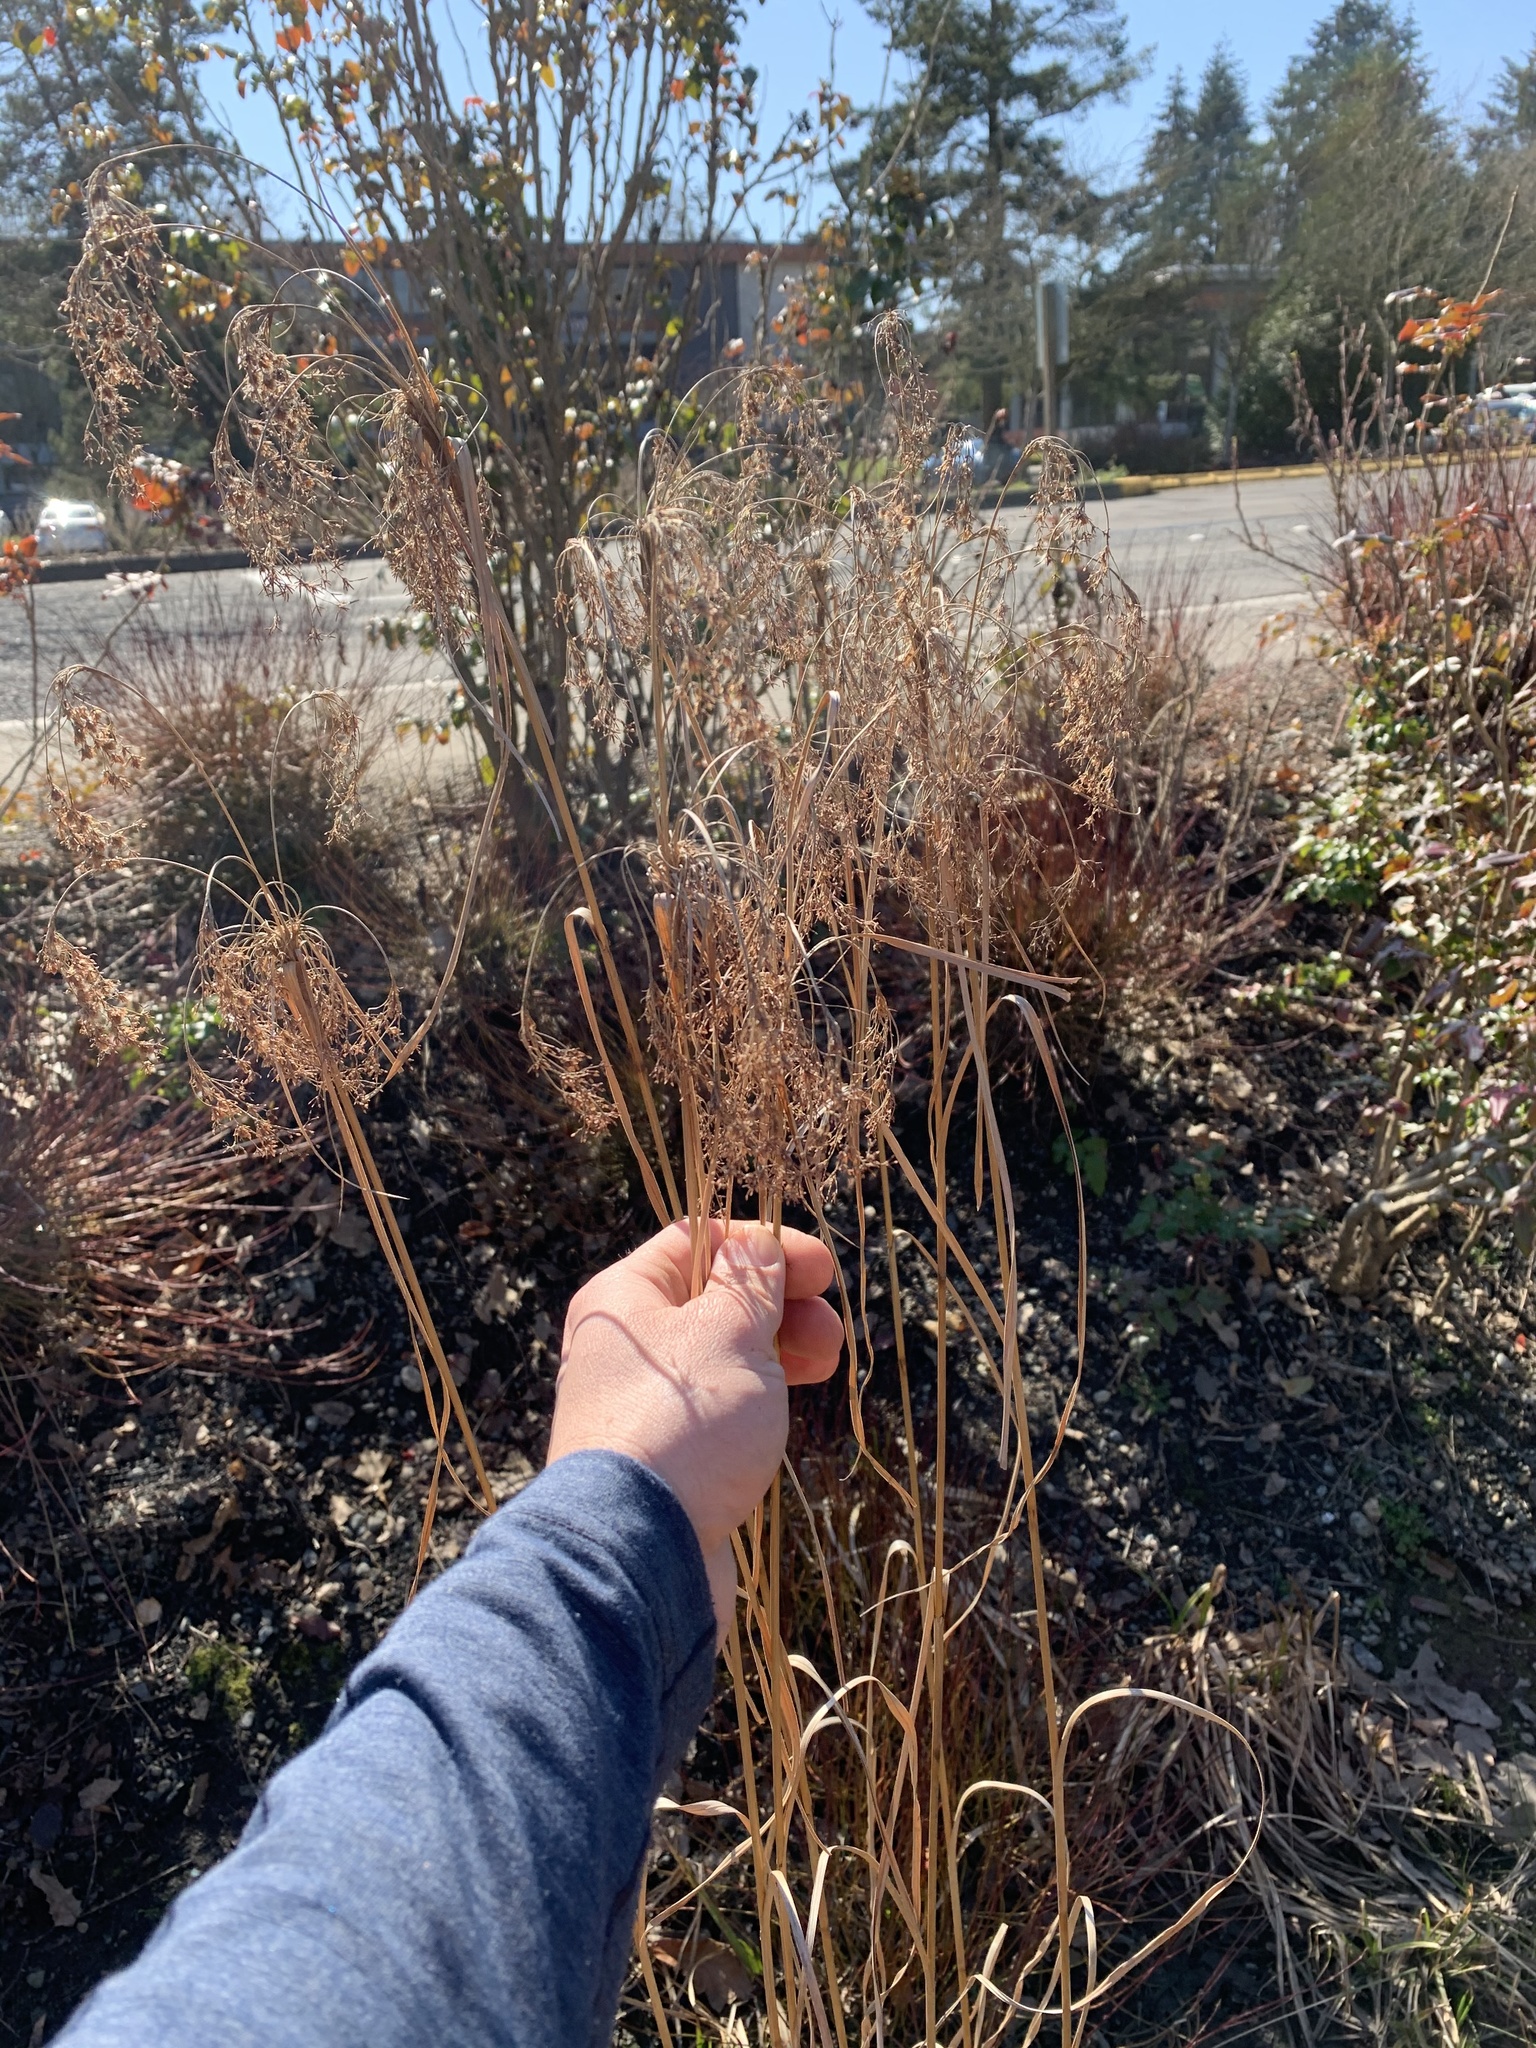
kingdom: Plantae
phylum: Tracheophyta
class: Liliopsida
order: Poales
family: Cyperaceae
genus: Scirpus
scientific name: Scirpus cyperinus
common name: Black-sheathed bulrush
